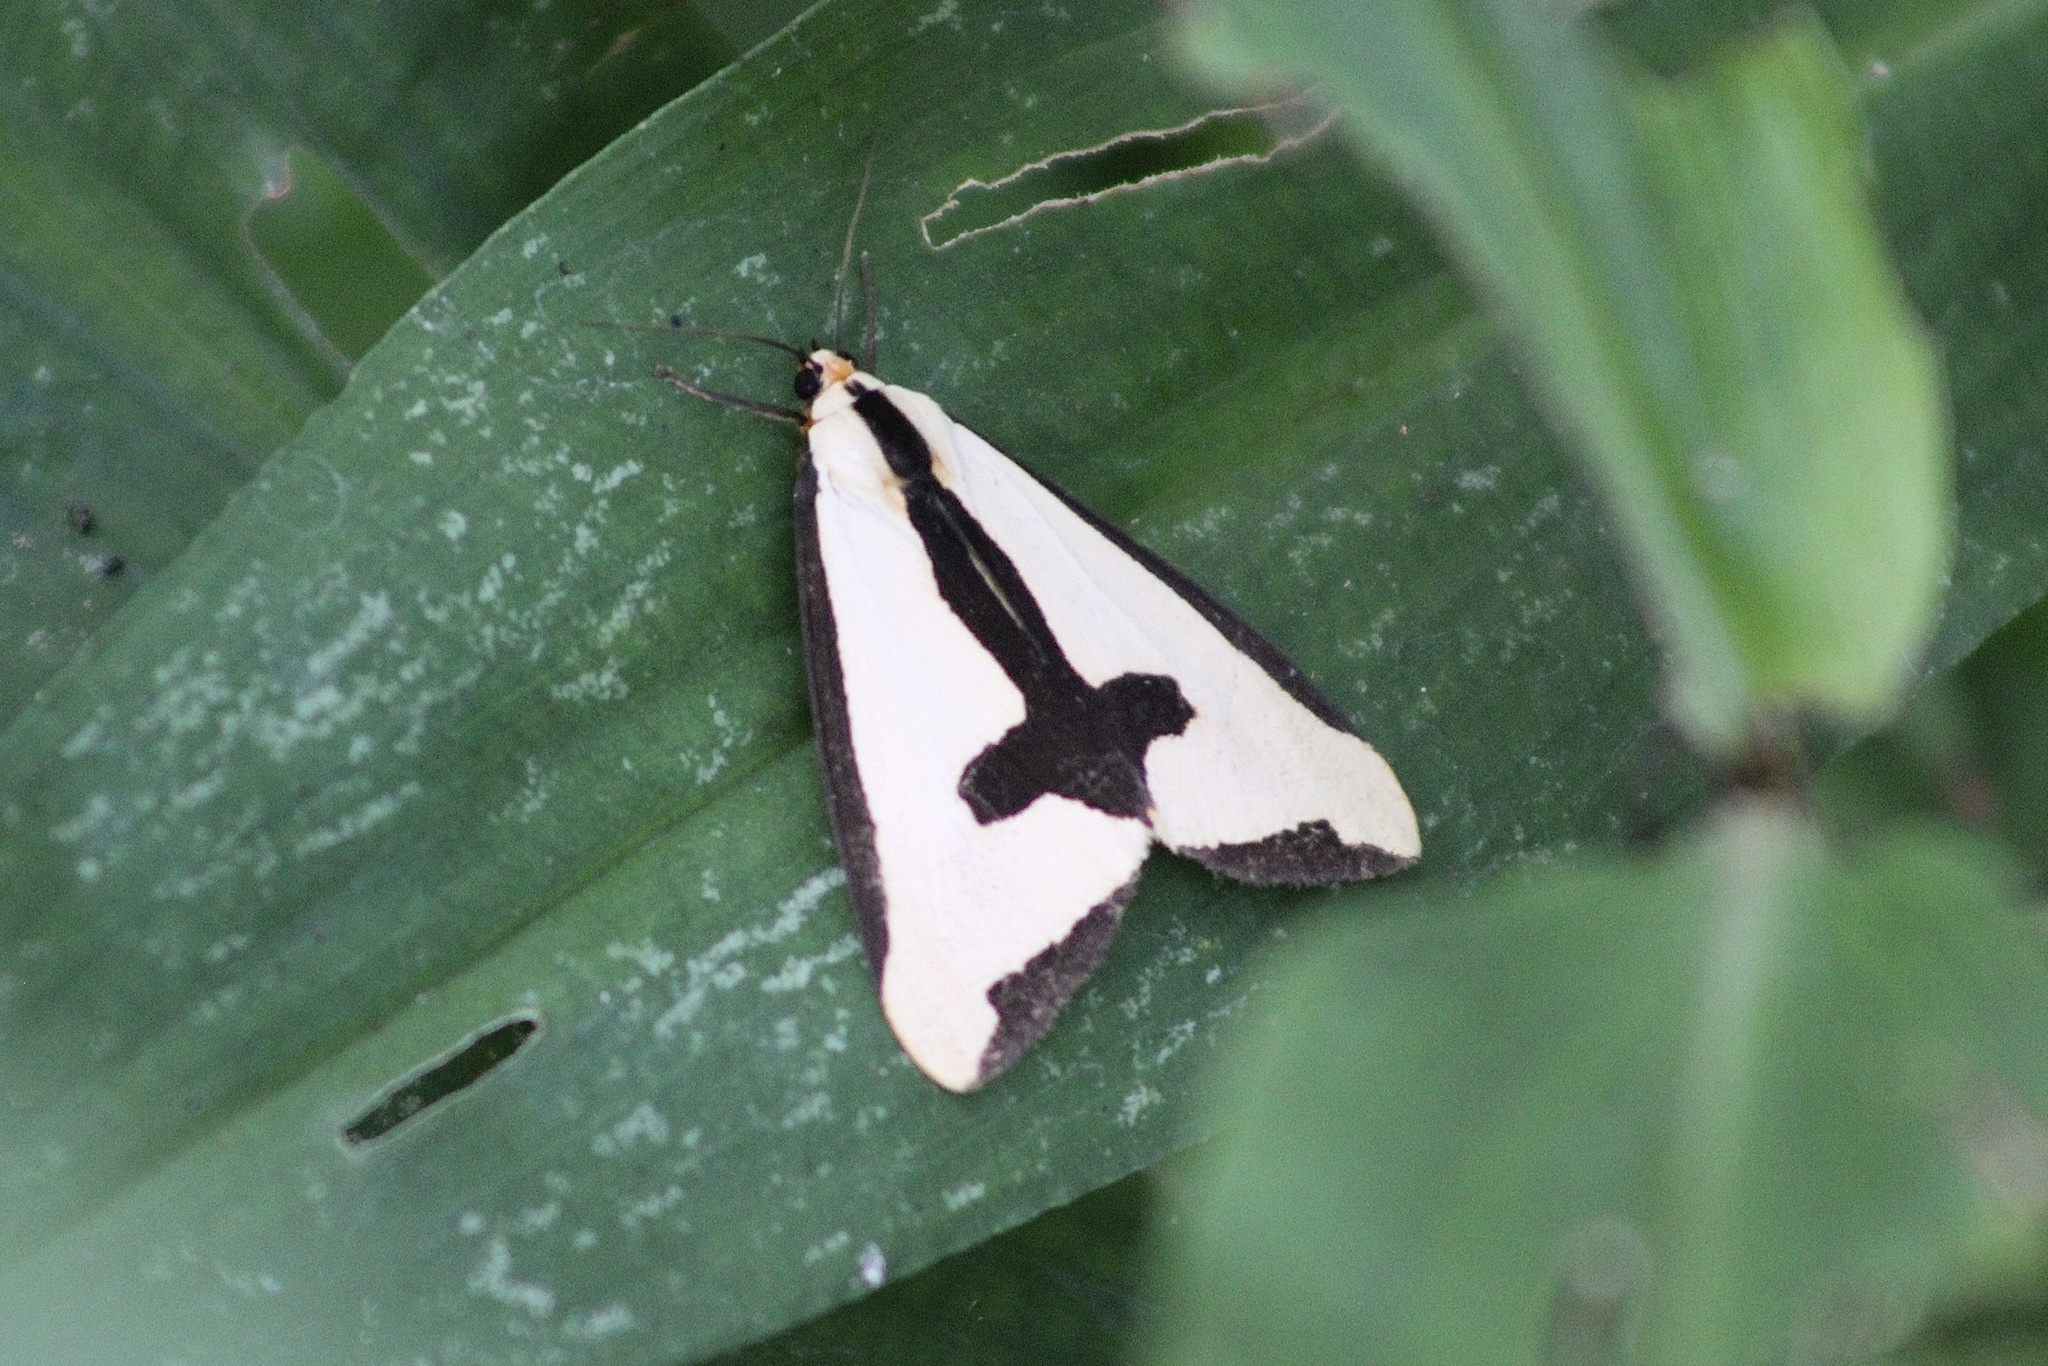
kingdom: Animalia
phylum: Arthropoda
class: Insecta
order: Lepidoptera
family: Erebidae
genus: Haploa
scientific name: Haploa clymene
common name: Clymene moth
